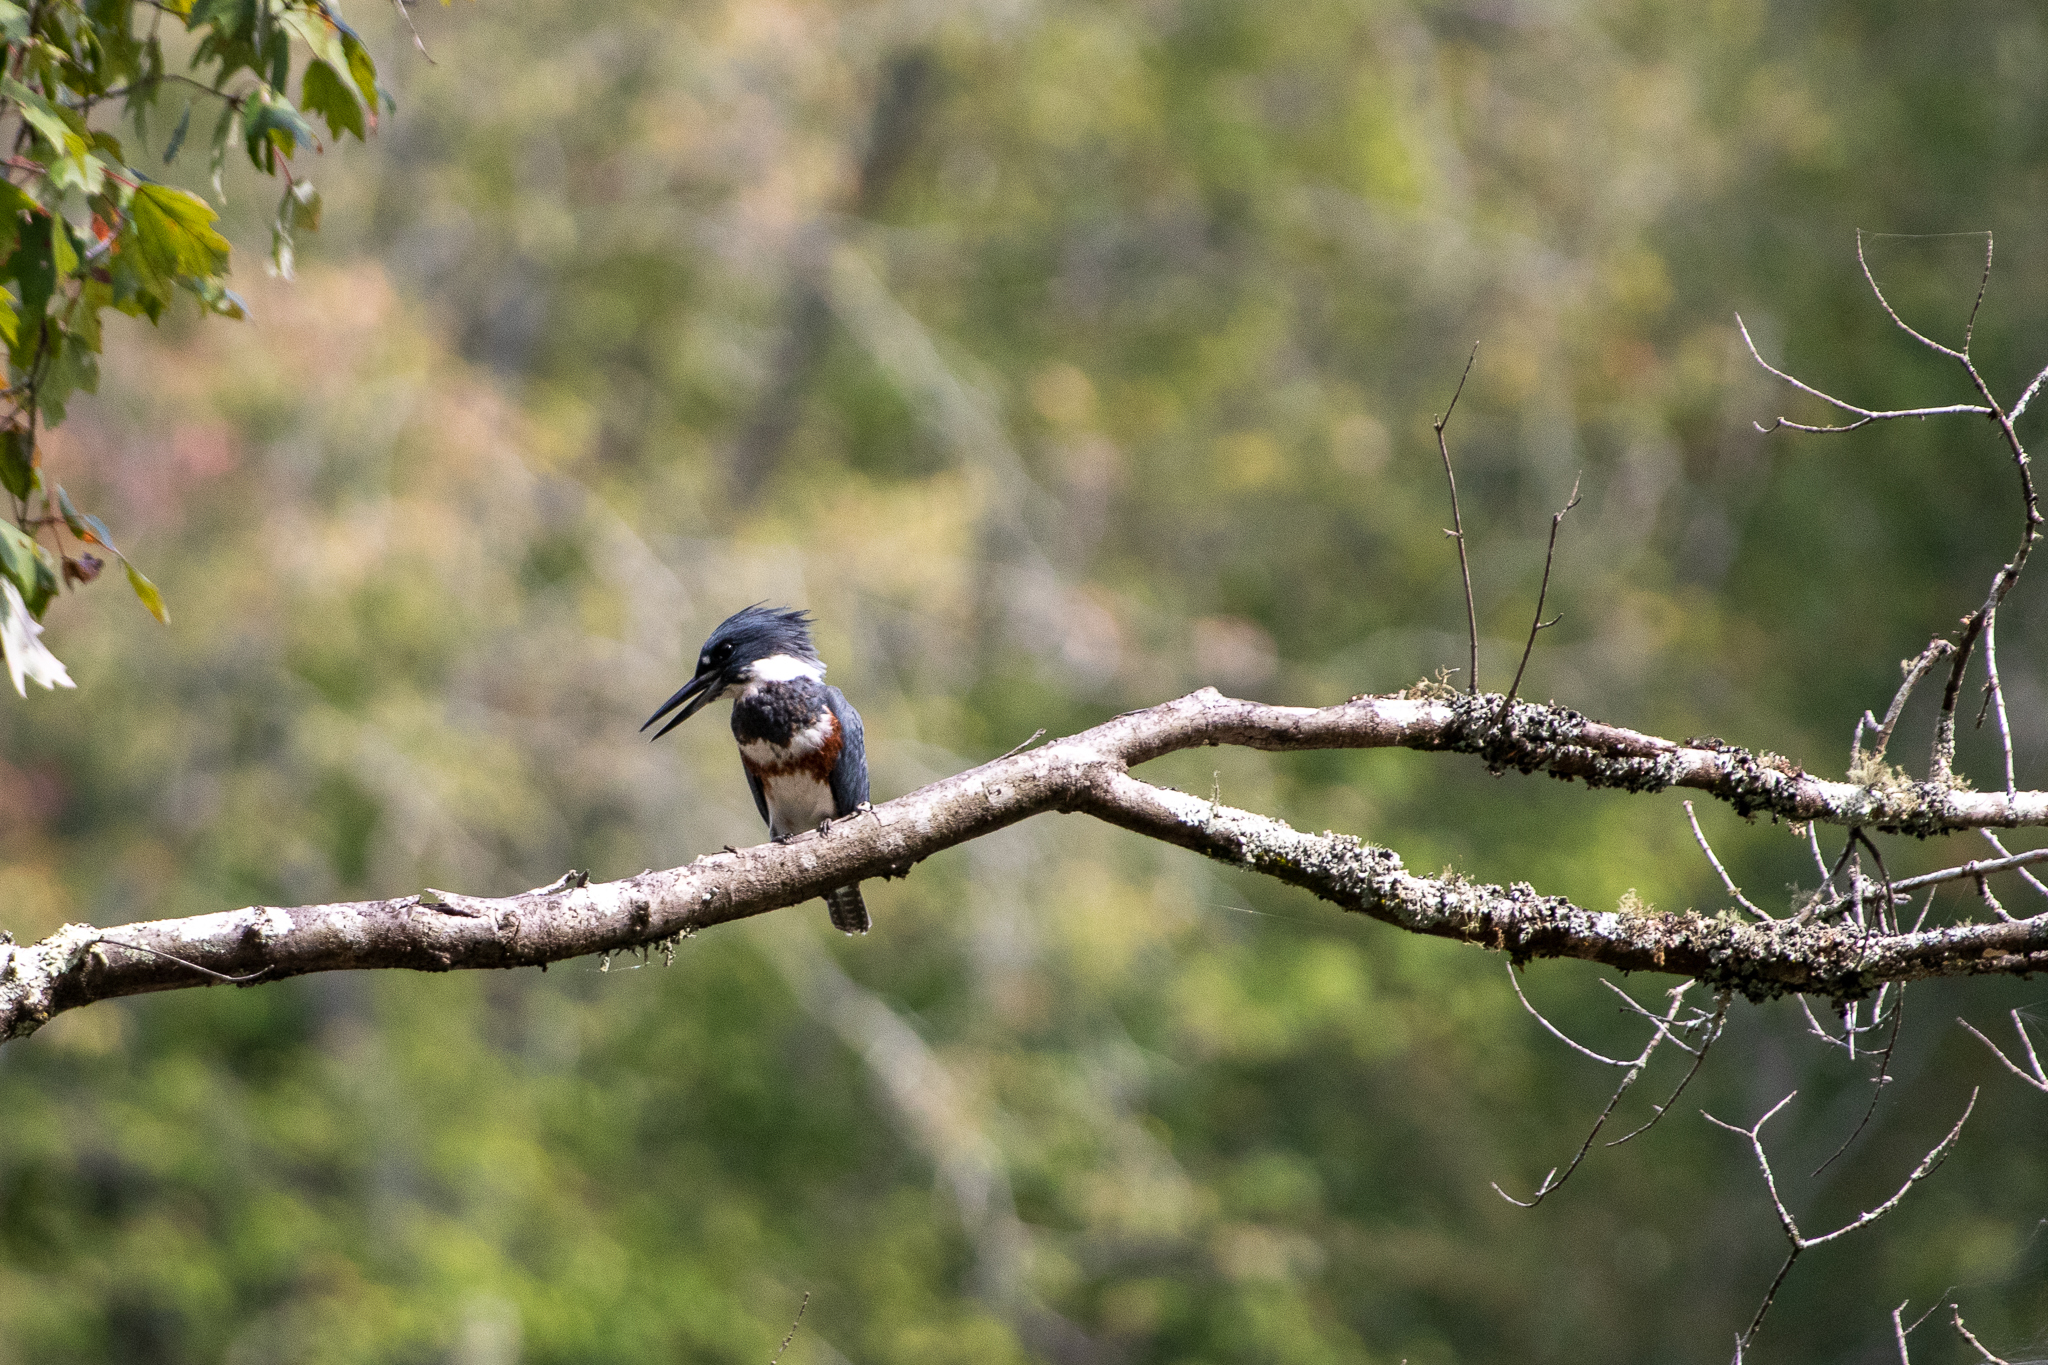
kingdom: Animalia
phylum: Chordata
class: Aves
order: Coraciiformes
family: Alcedinidae
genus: Megaceryle
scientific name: Megaceryle alcyon
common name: Belted kingfisher
